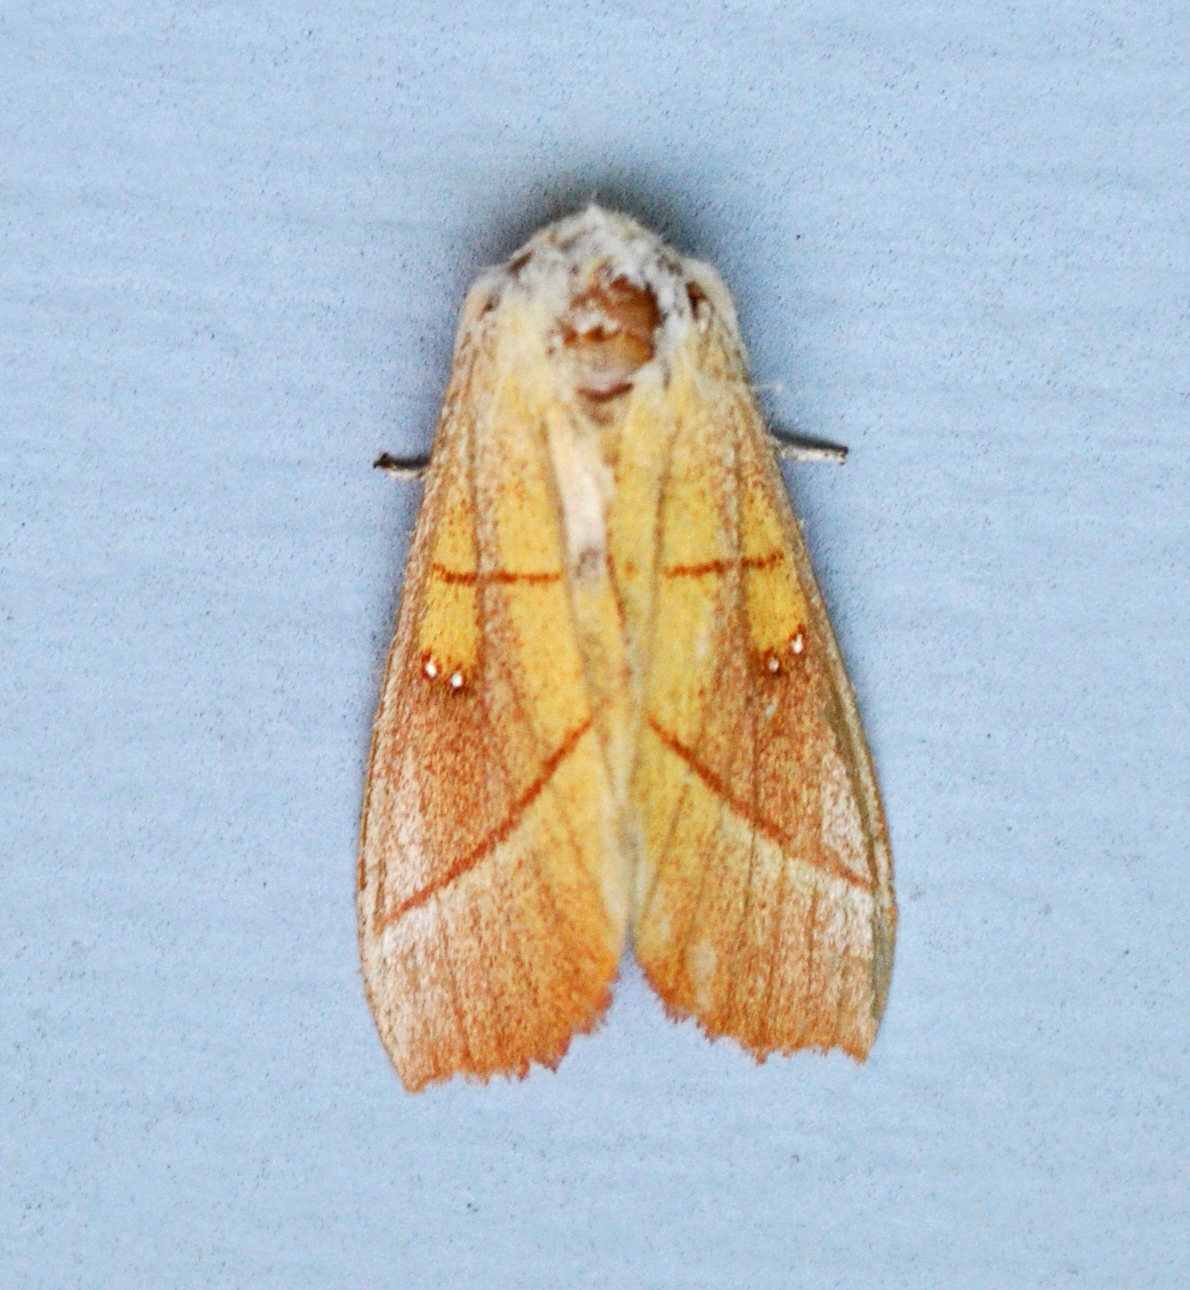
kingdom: Animalia
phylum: Arthropoda
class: Insecta
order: Lepidoptera
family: Notodontidae
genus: Nadata
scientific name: Nadata gibbosa
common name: White-dotted prominent
